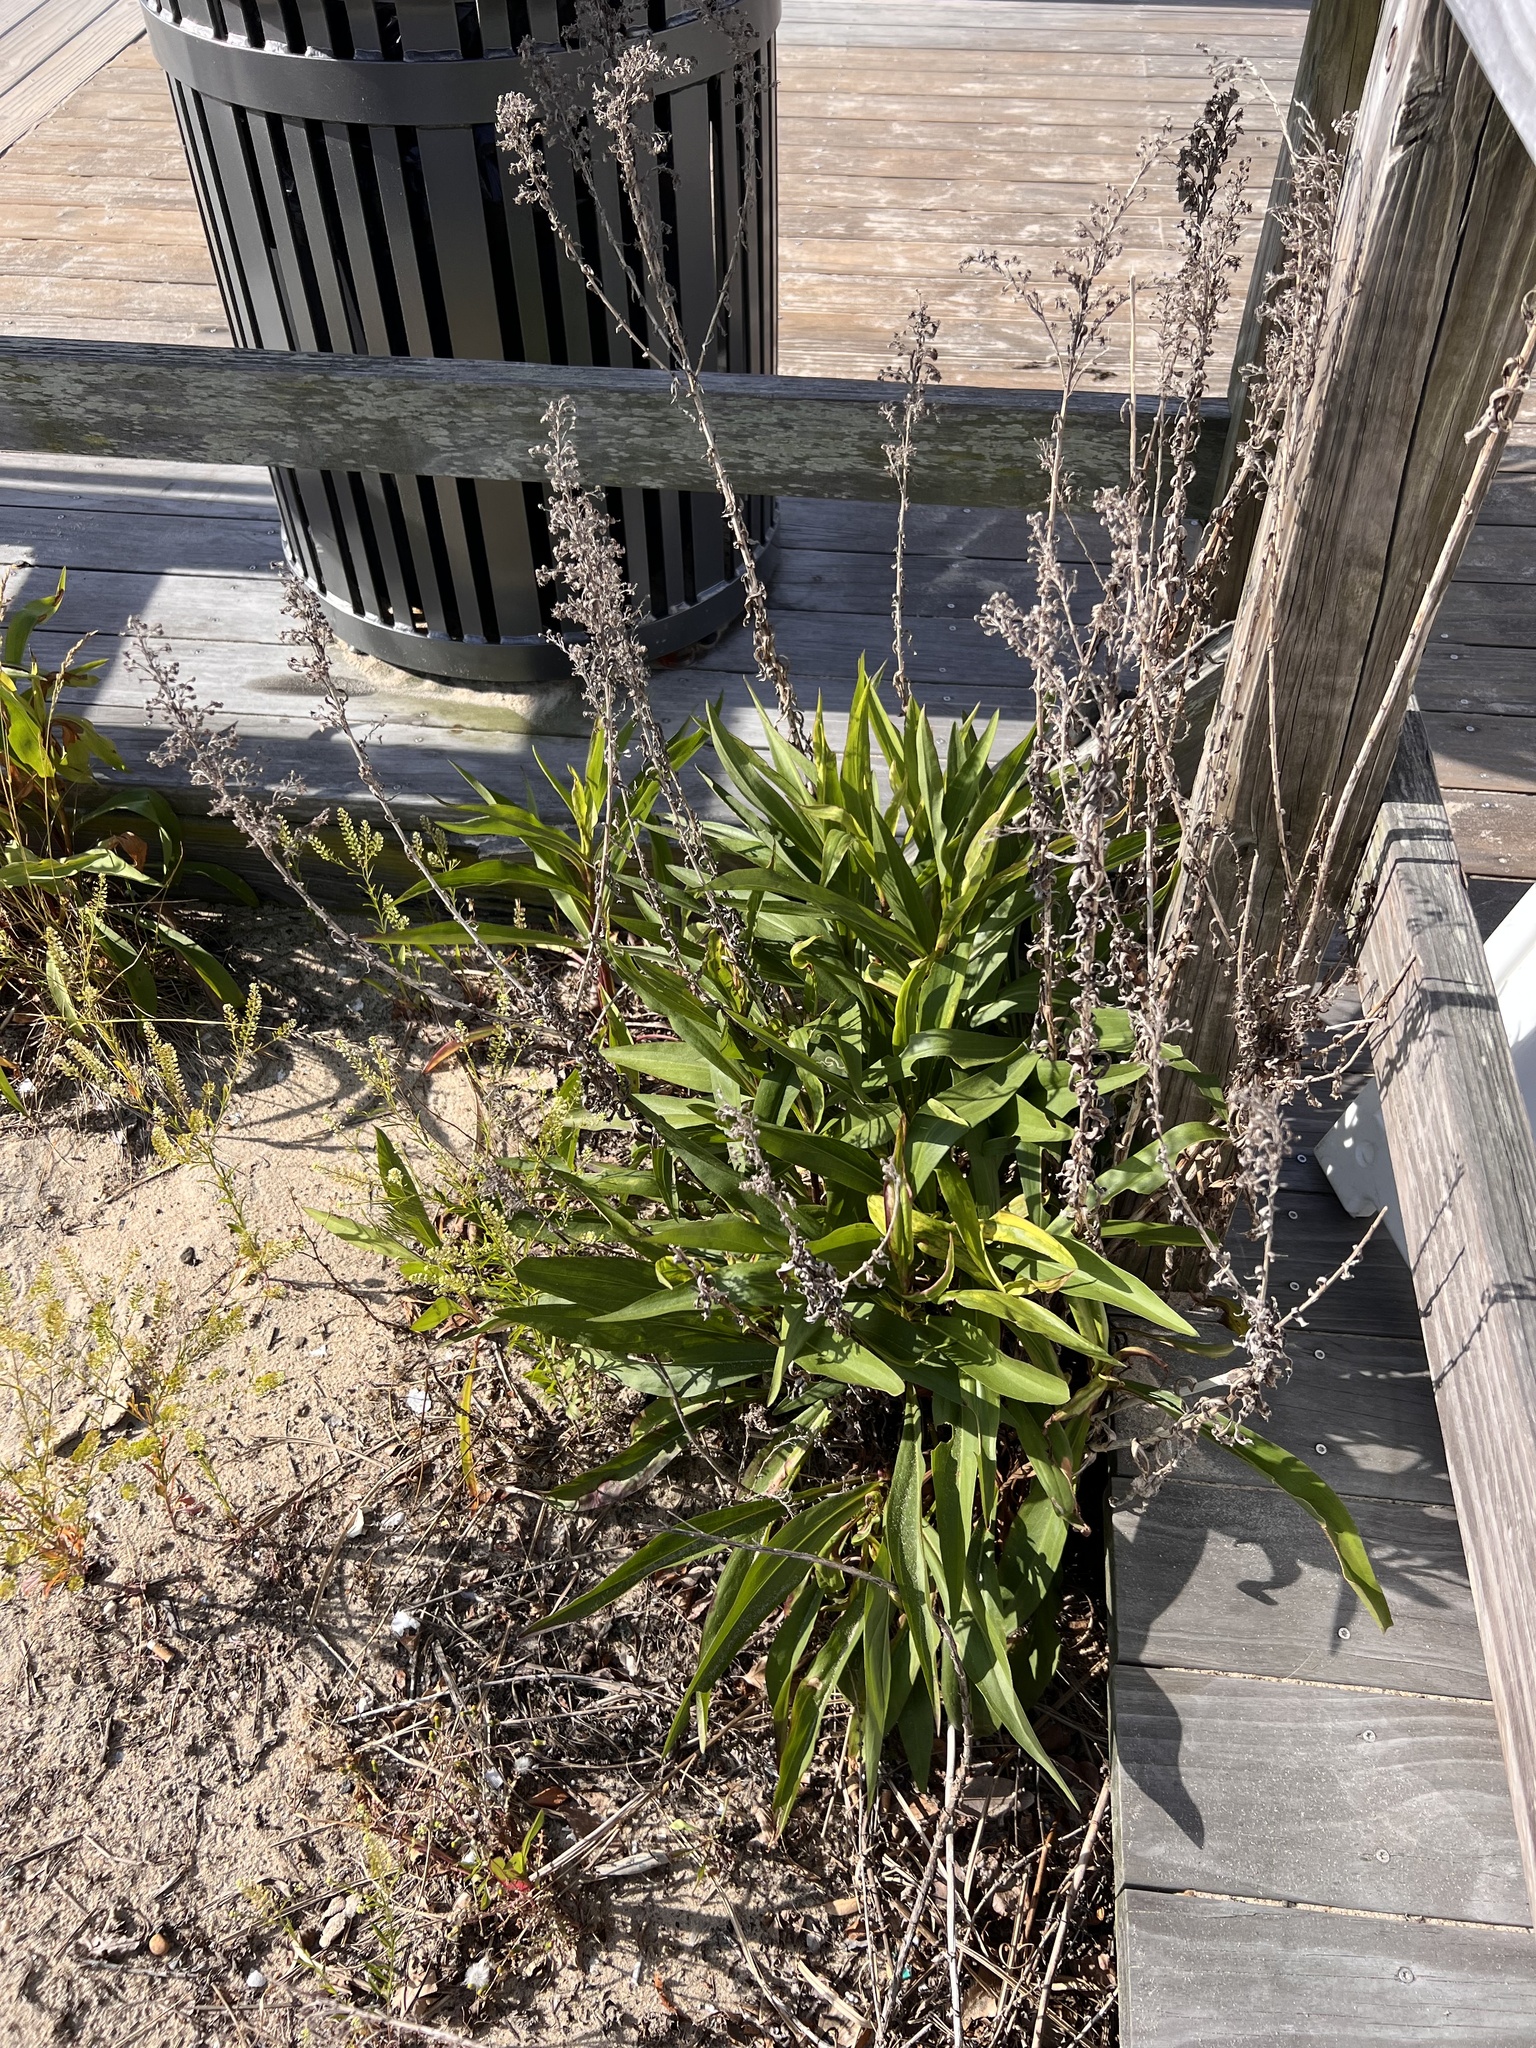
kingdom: Plantae
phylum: Tracheophyta
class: Magnoliopsida
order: Asterales
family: Asteraceae
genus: Solidago
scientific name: Solidago sempervirens
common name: Salt-marsh goldenrod
